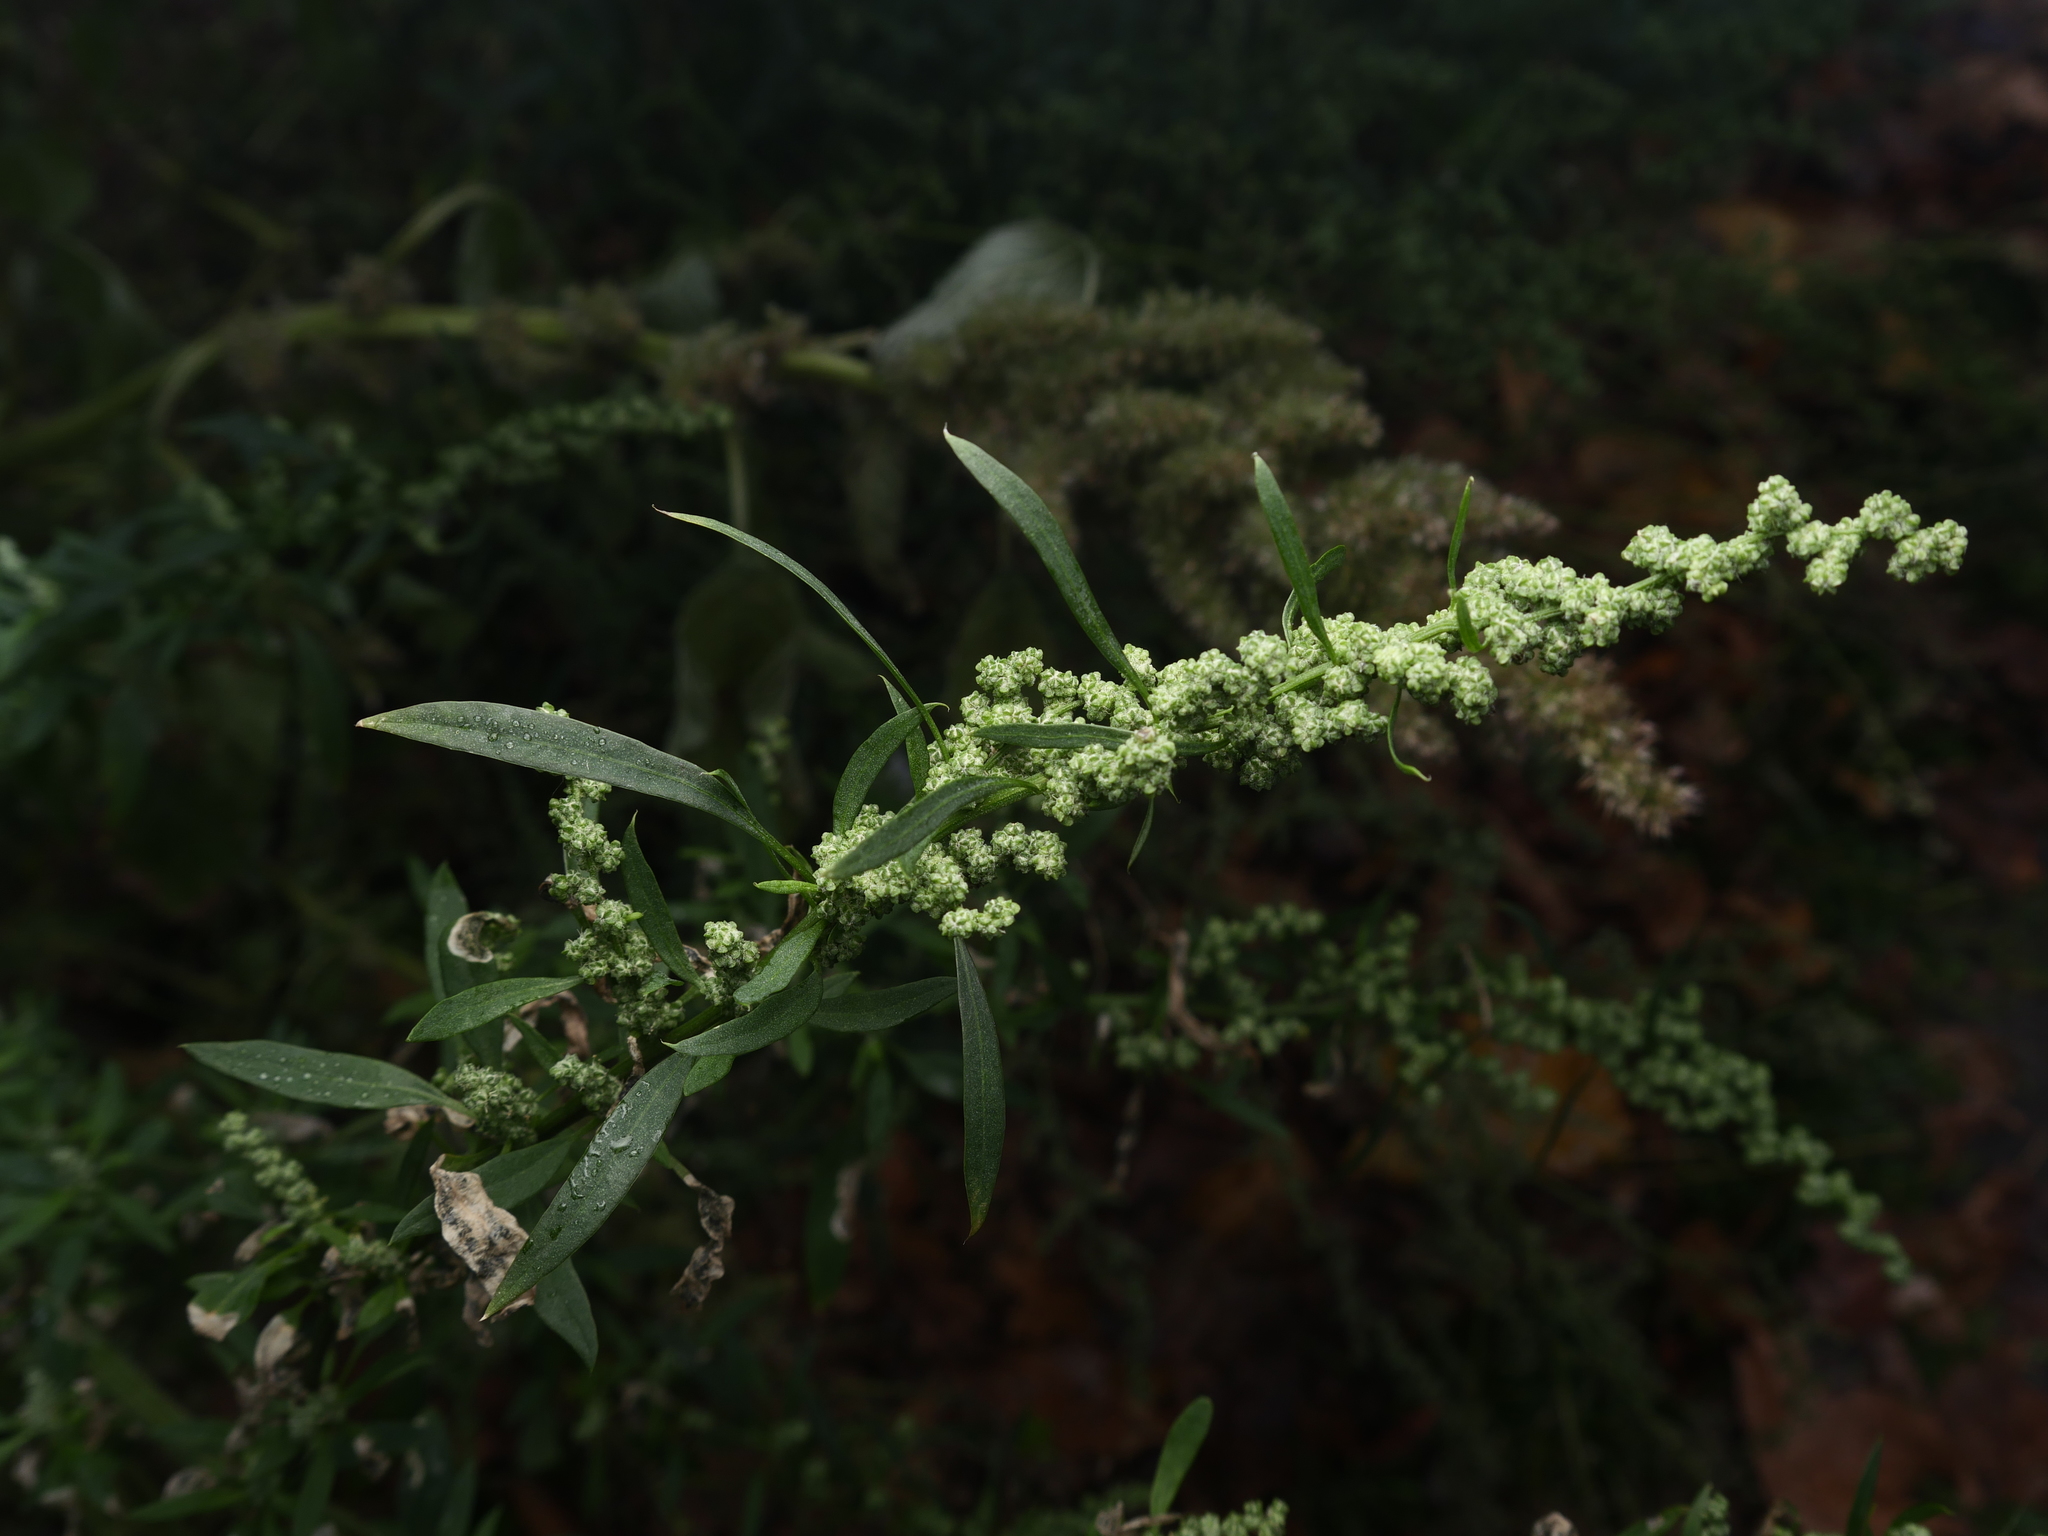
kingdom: Plantae
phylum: Tracheophyta
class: Magnoliopsida
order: Caryophyllales
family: Amaranthaceae
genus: Chenopodium
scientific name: Chenopodium album
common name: Fat-hen
